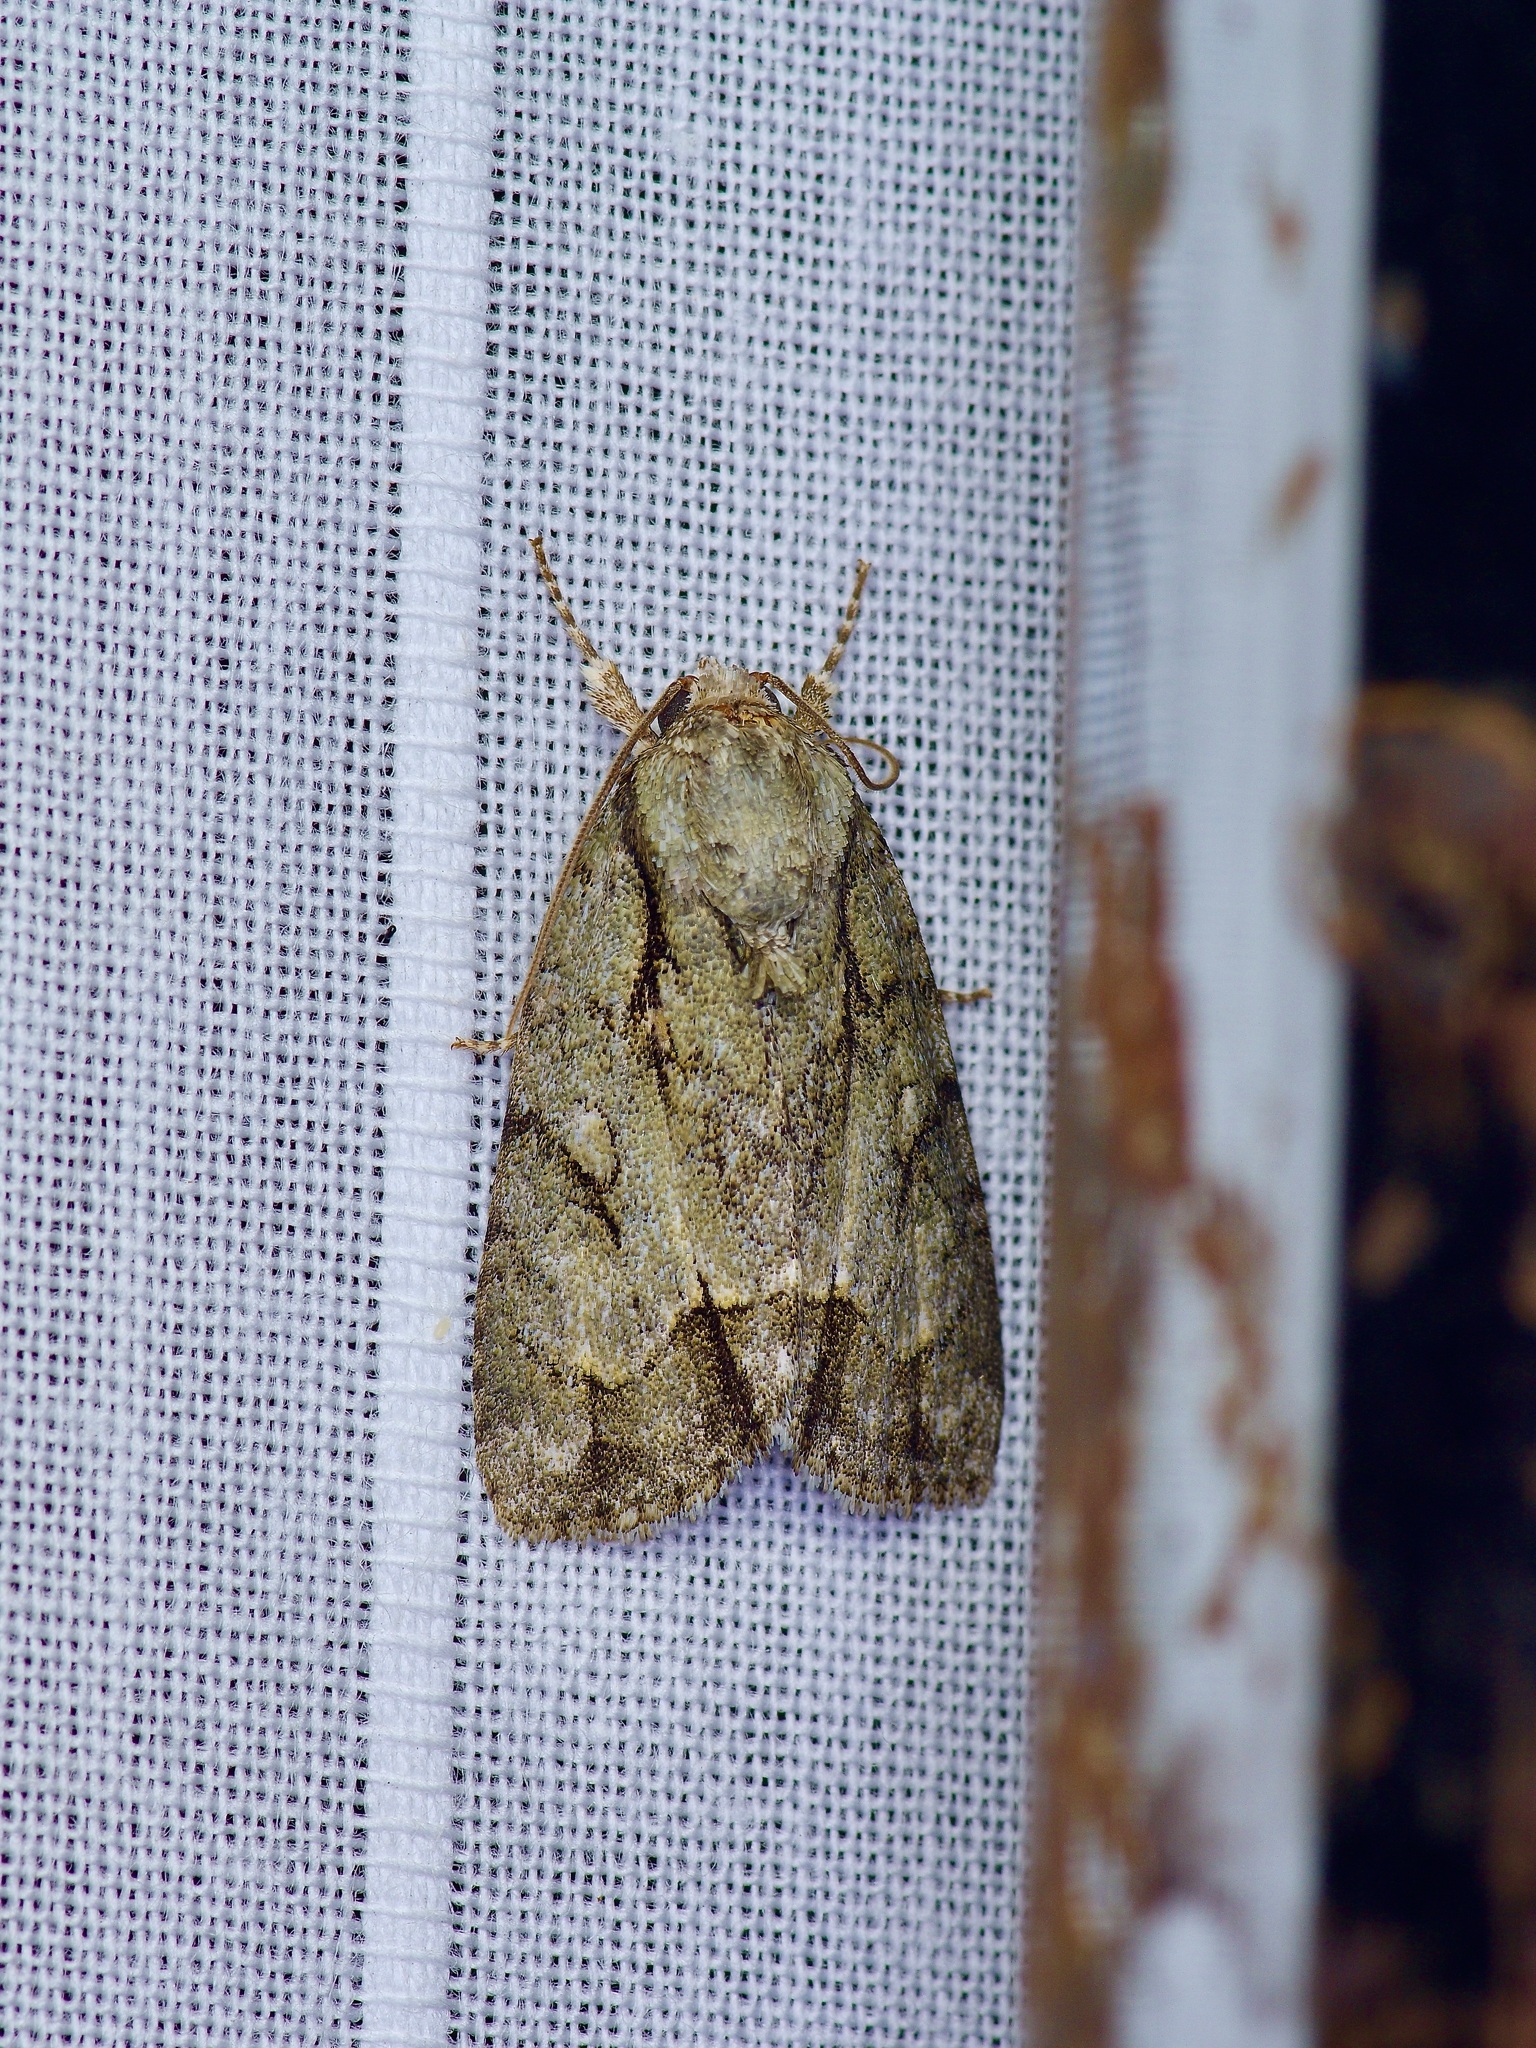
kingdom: Animalia
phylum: Arthropoda
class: Insecta
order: Lepidoptera
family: Noctuidae
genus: Acronicta
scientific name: Acronicta vinnula
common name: Delightful dagger
